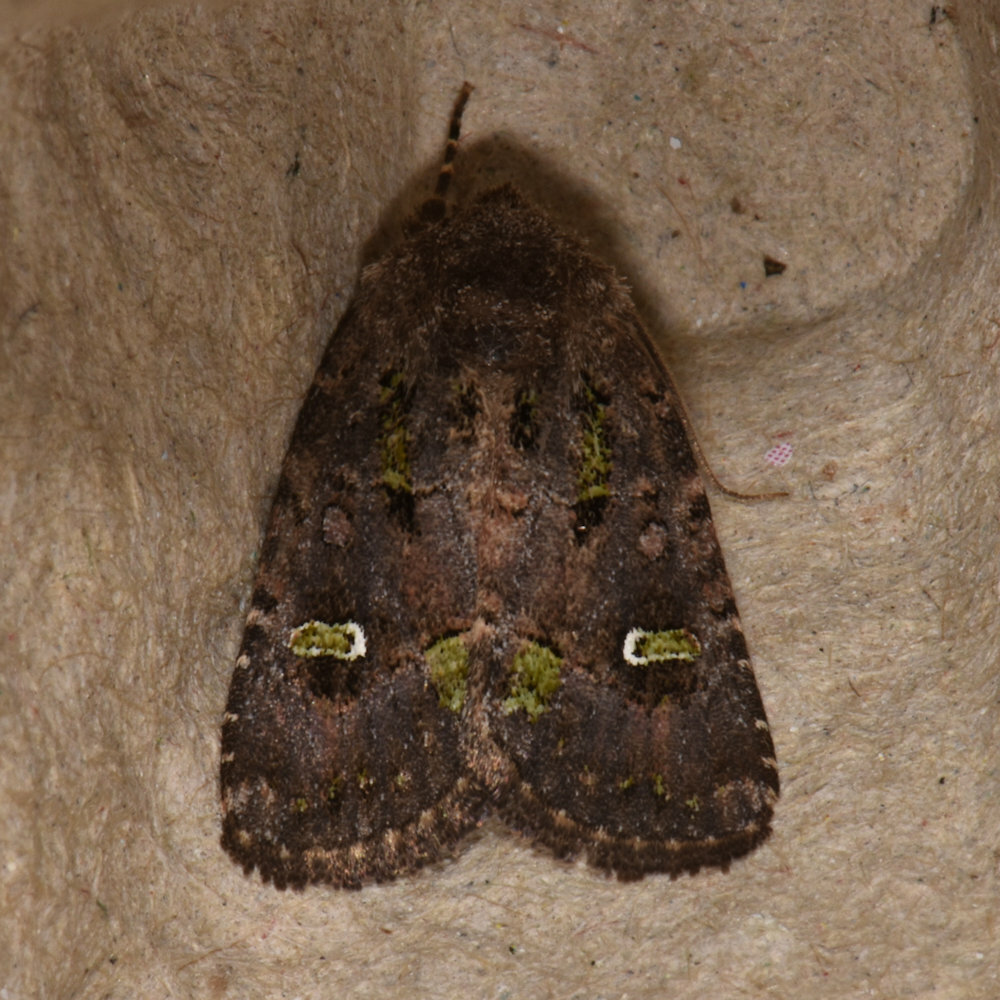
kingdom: Animalia
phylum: Arthropoda
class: Insecta
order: Lepidoptera
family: Noctuidae
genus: Lacinipolia
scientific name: Lacinipolia renigera
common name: Kidney-spotted minor
